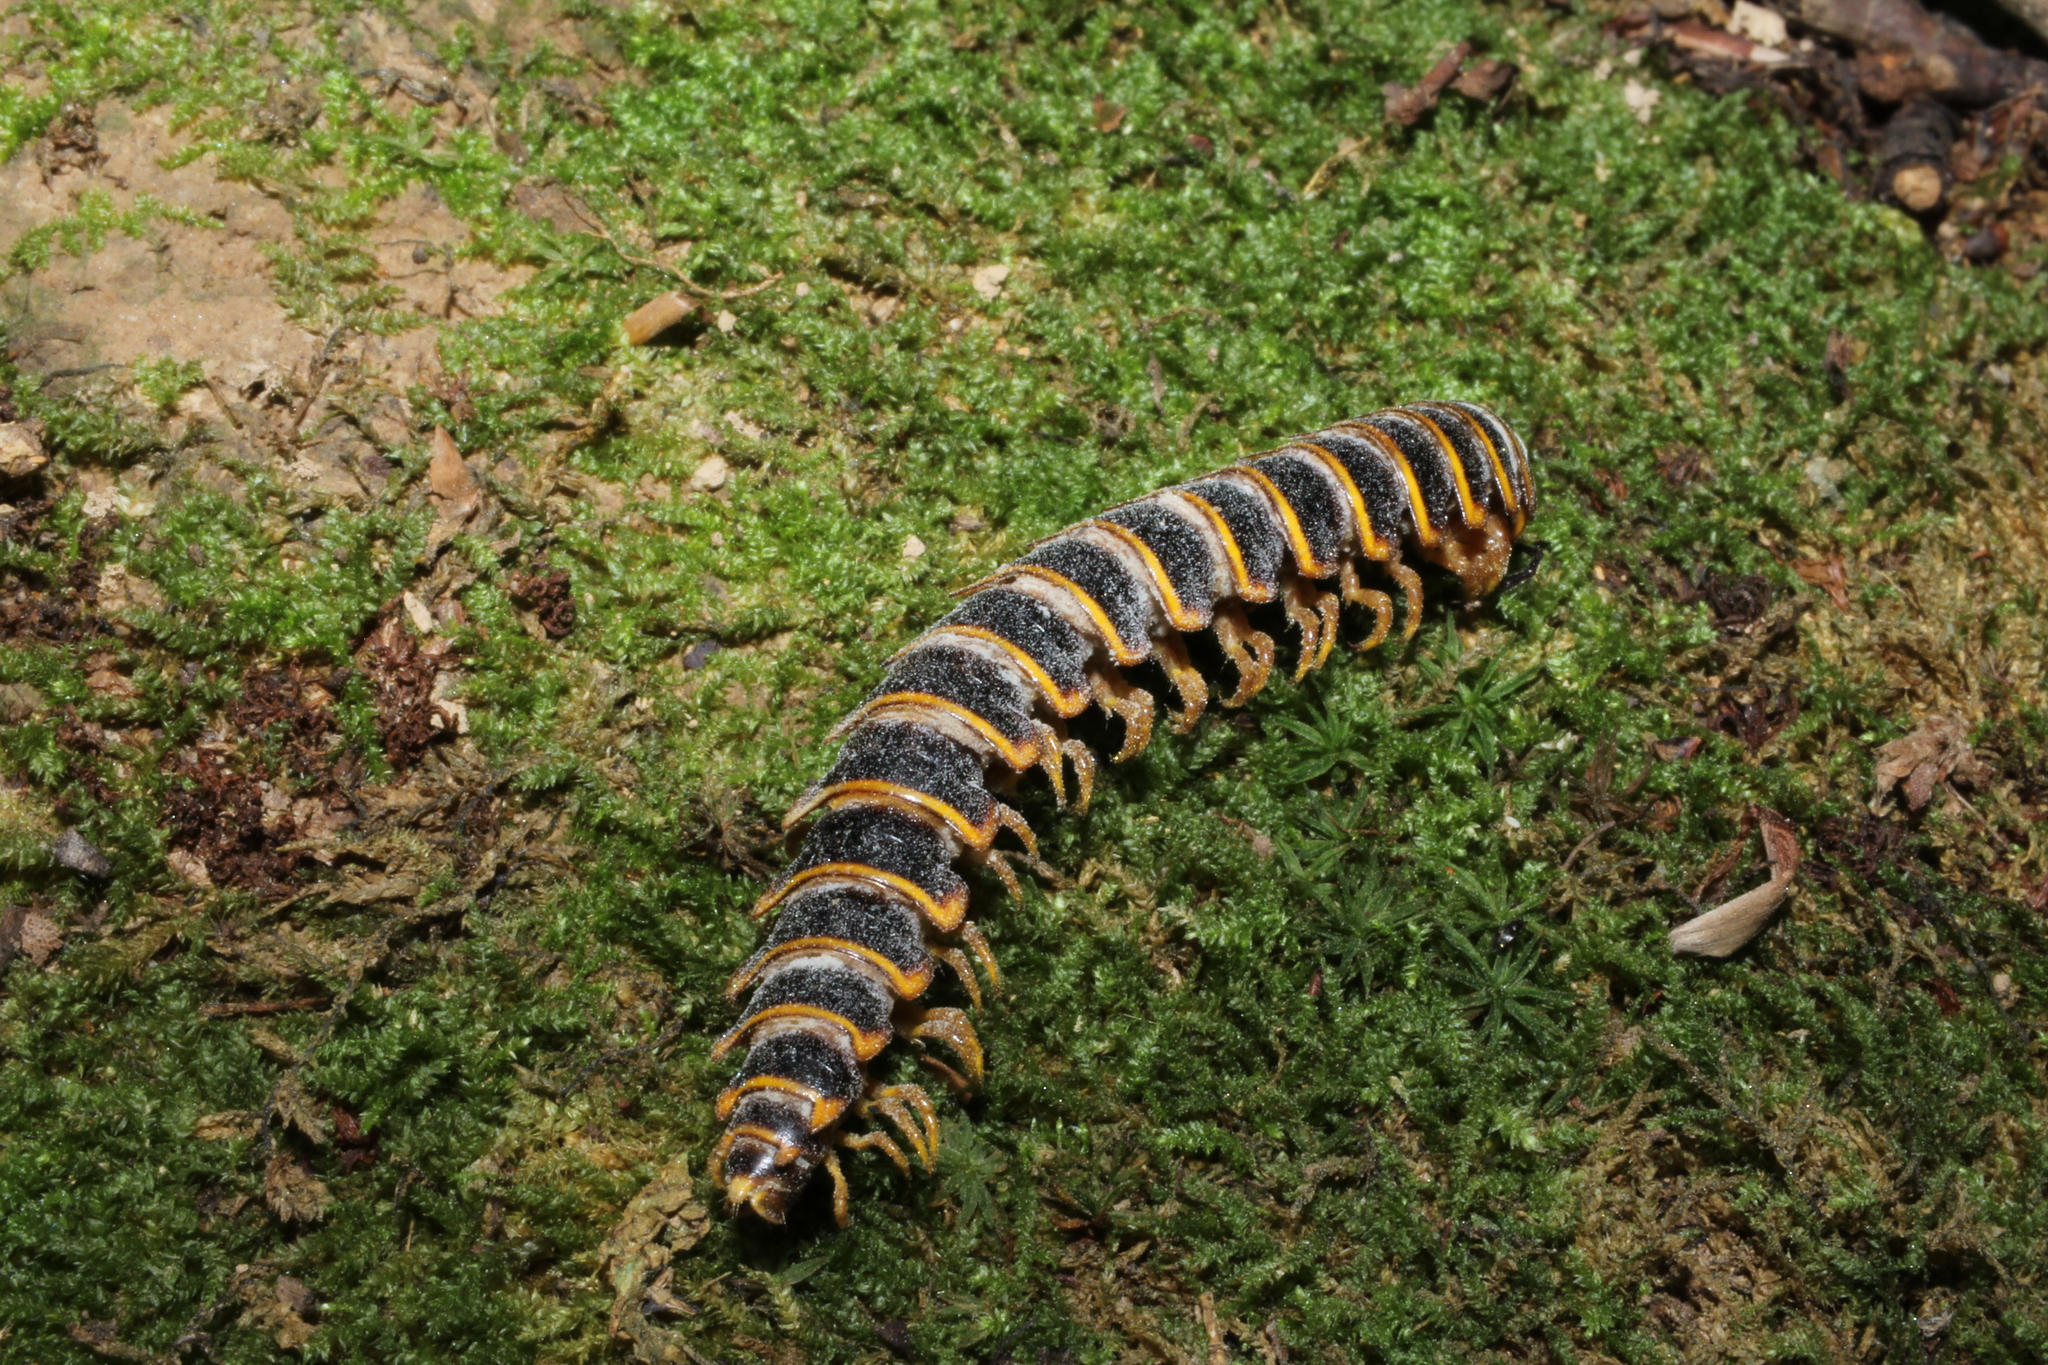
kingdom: Fungi
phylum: Entomophthoromycota
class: Entomophthoromycetes
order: Entomophthorales
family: Entomophthoraceae
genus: Arthrophaga
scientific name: Arthrophaga myriapodina
